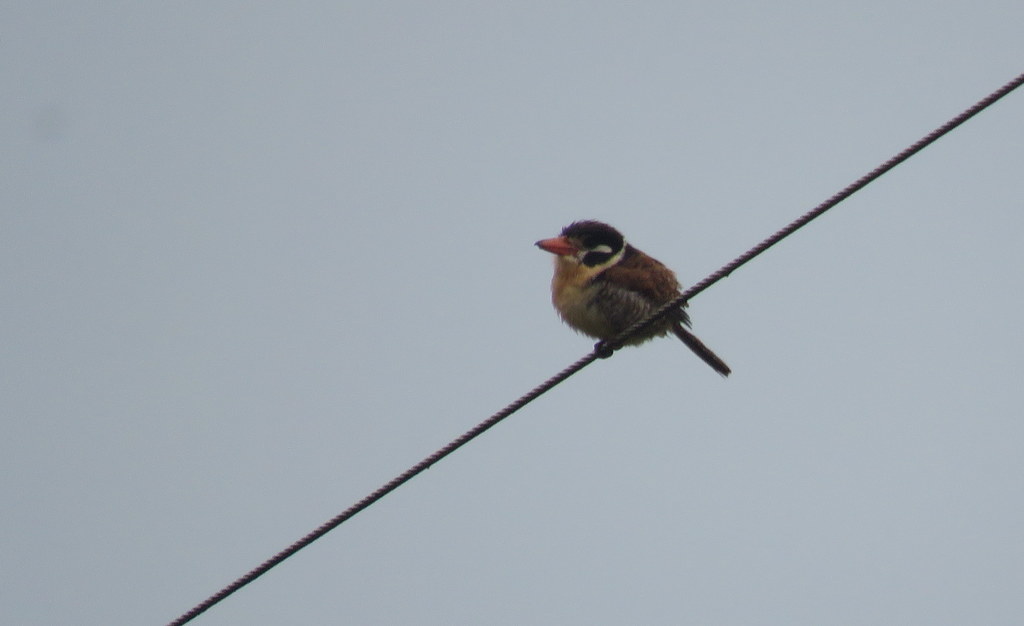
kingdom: Animalia
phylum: Chordata
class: Aves
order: Piciformes
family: Bucconidae
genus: Nystalus
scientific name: Nystalus chacuru
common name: White-eared puffbird
